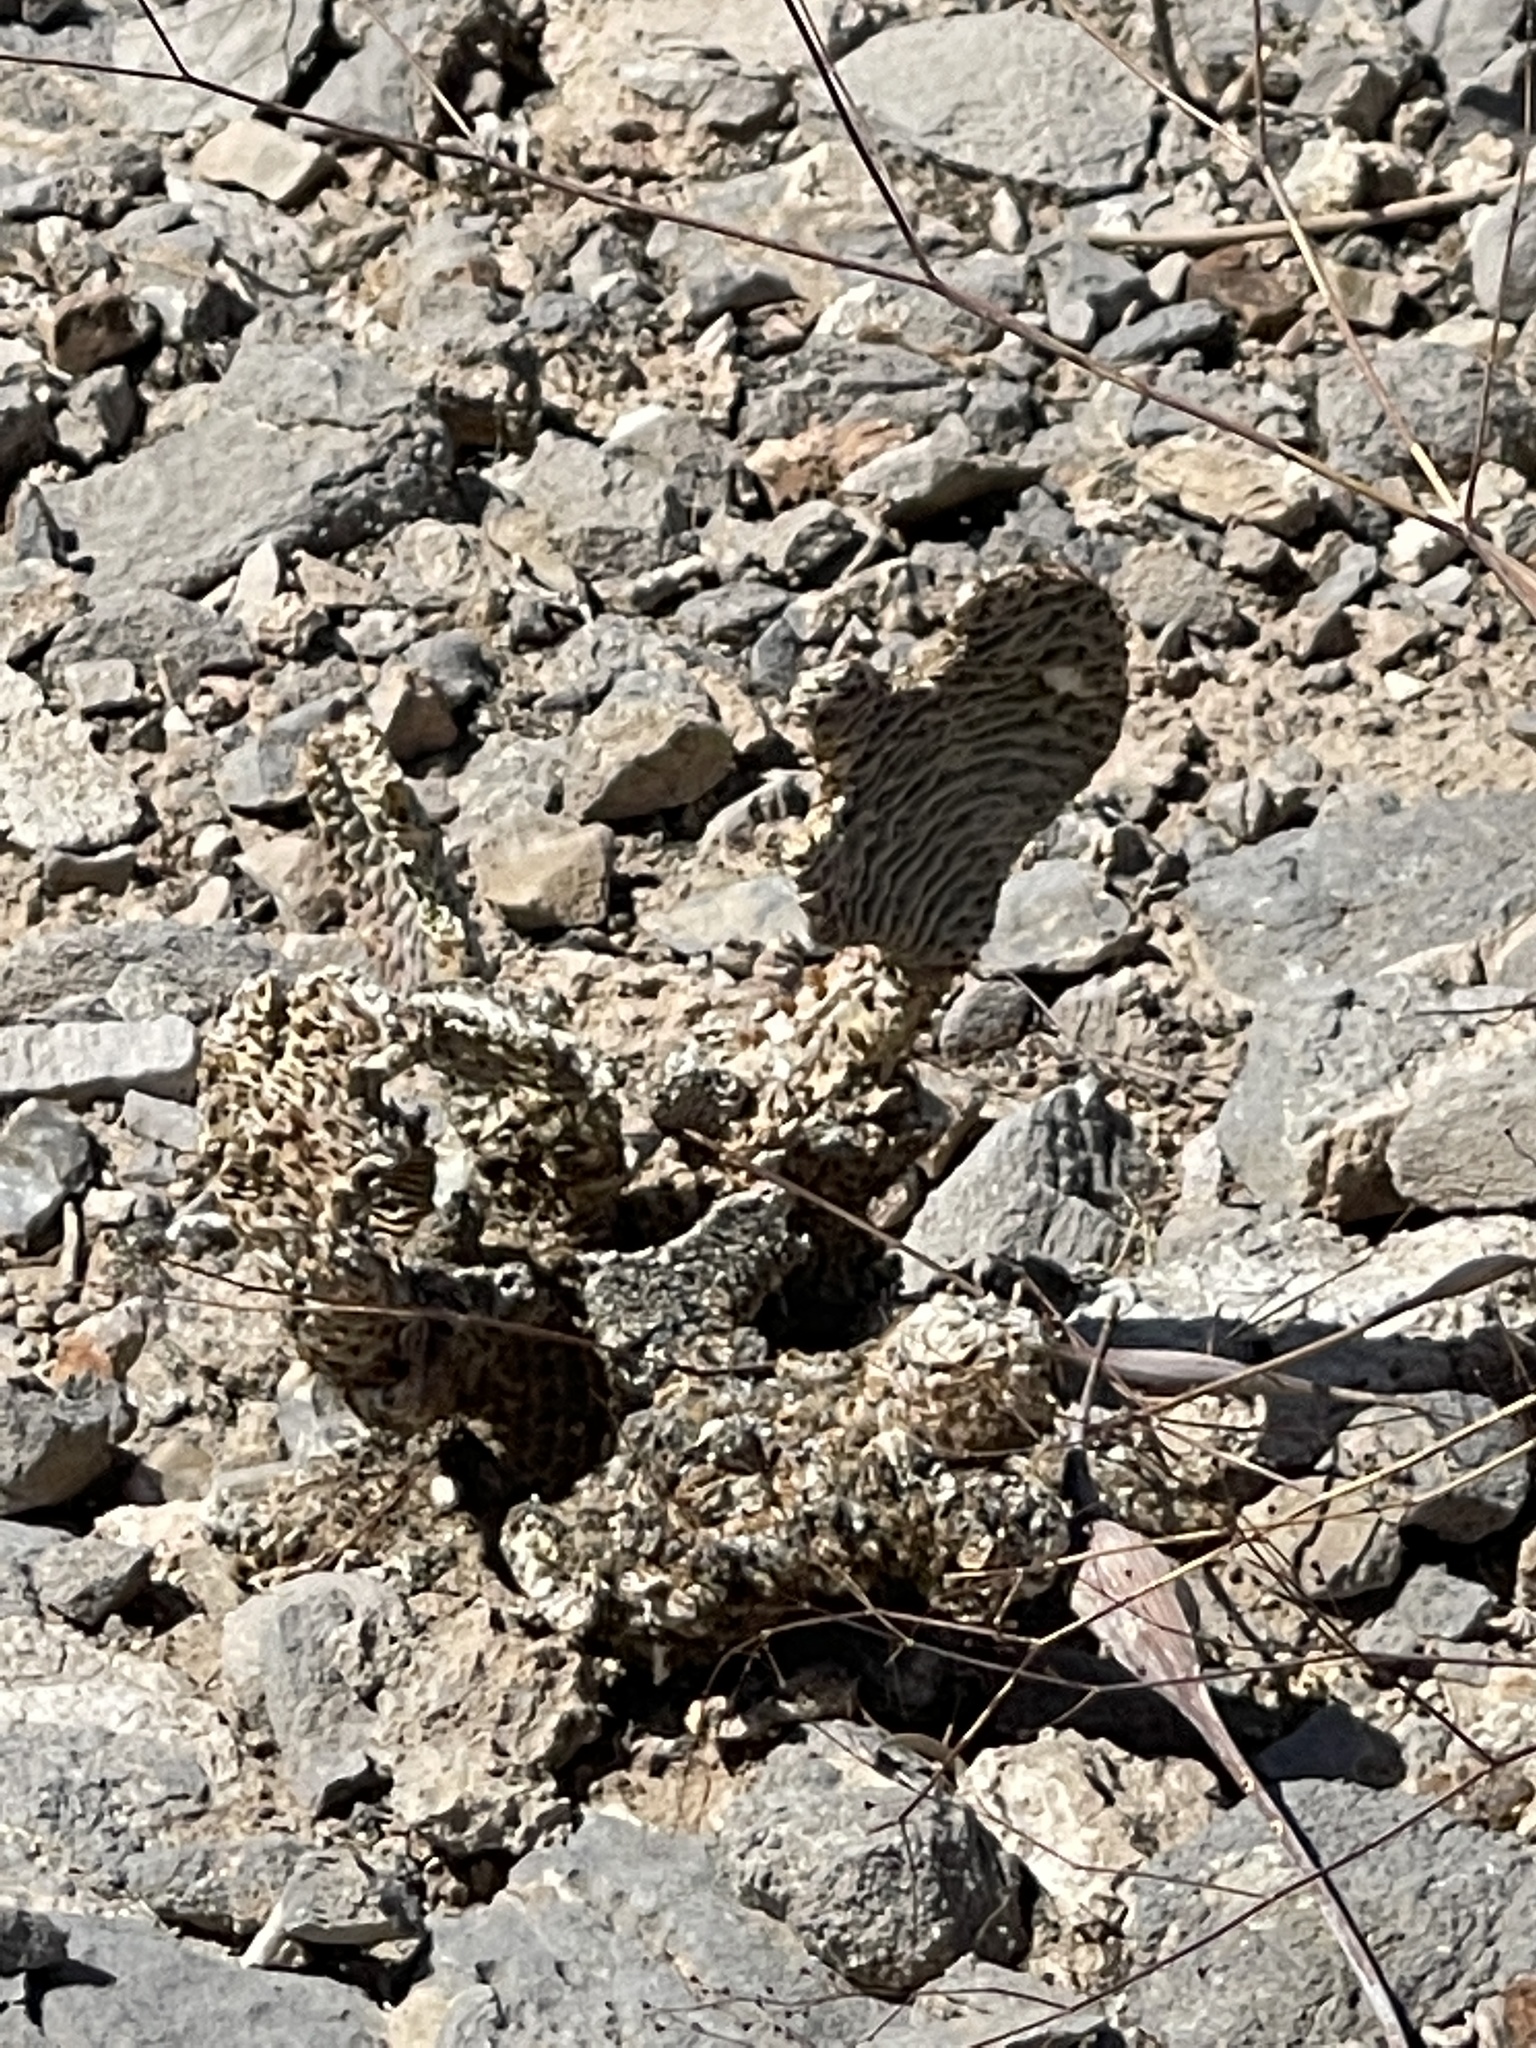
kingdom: Plantae
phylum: Tracheophyta
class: Magnoliopsida
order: Caryophyllales
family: Cactaceae
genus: Opuntia
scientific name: Opuntia basilaris
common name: Beavertail prickly-pear
